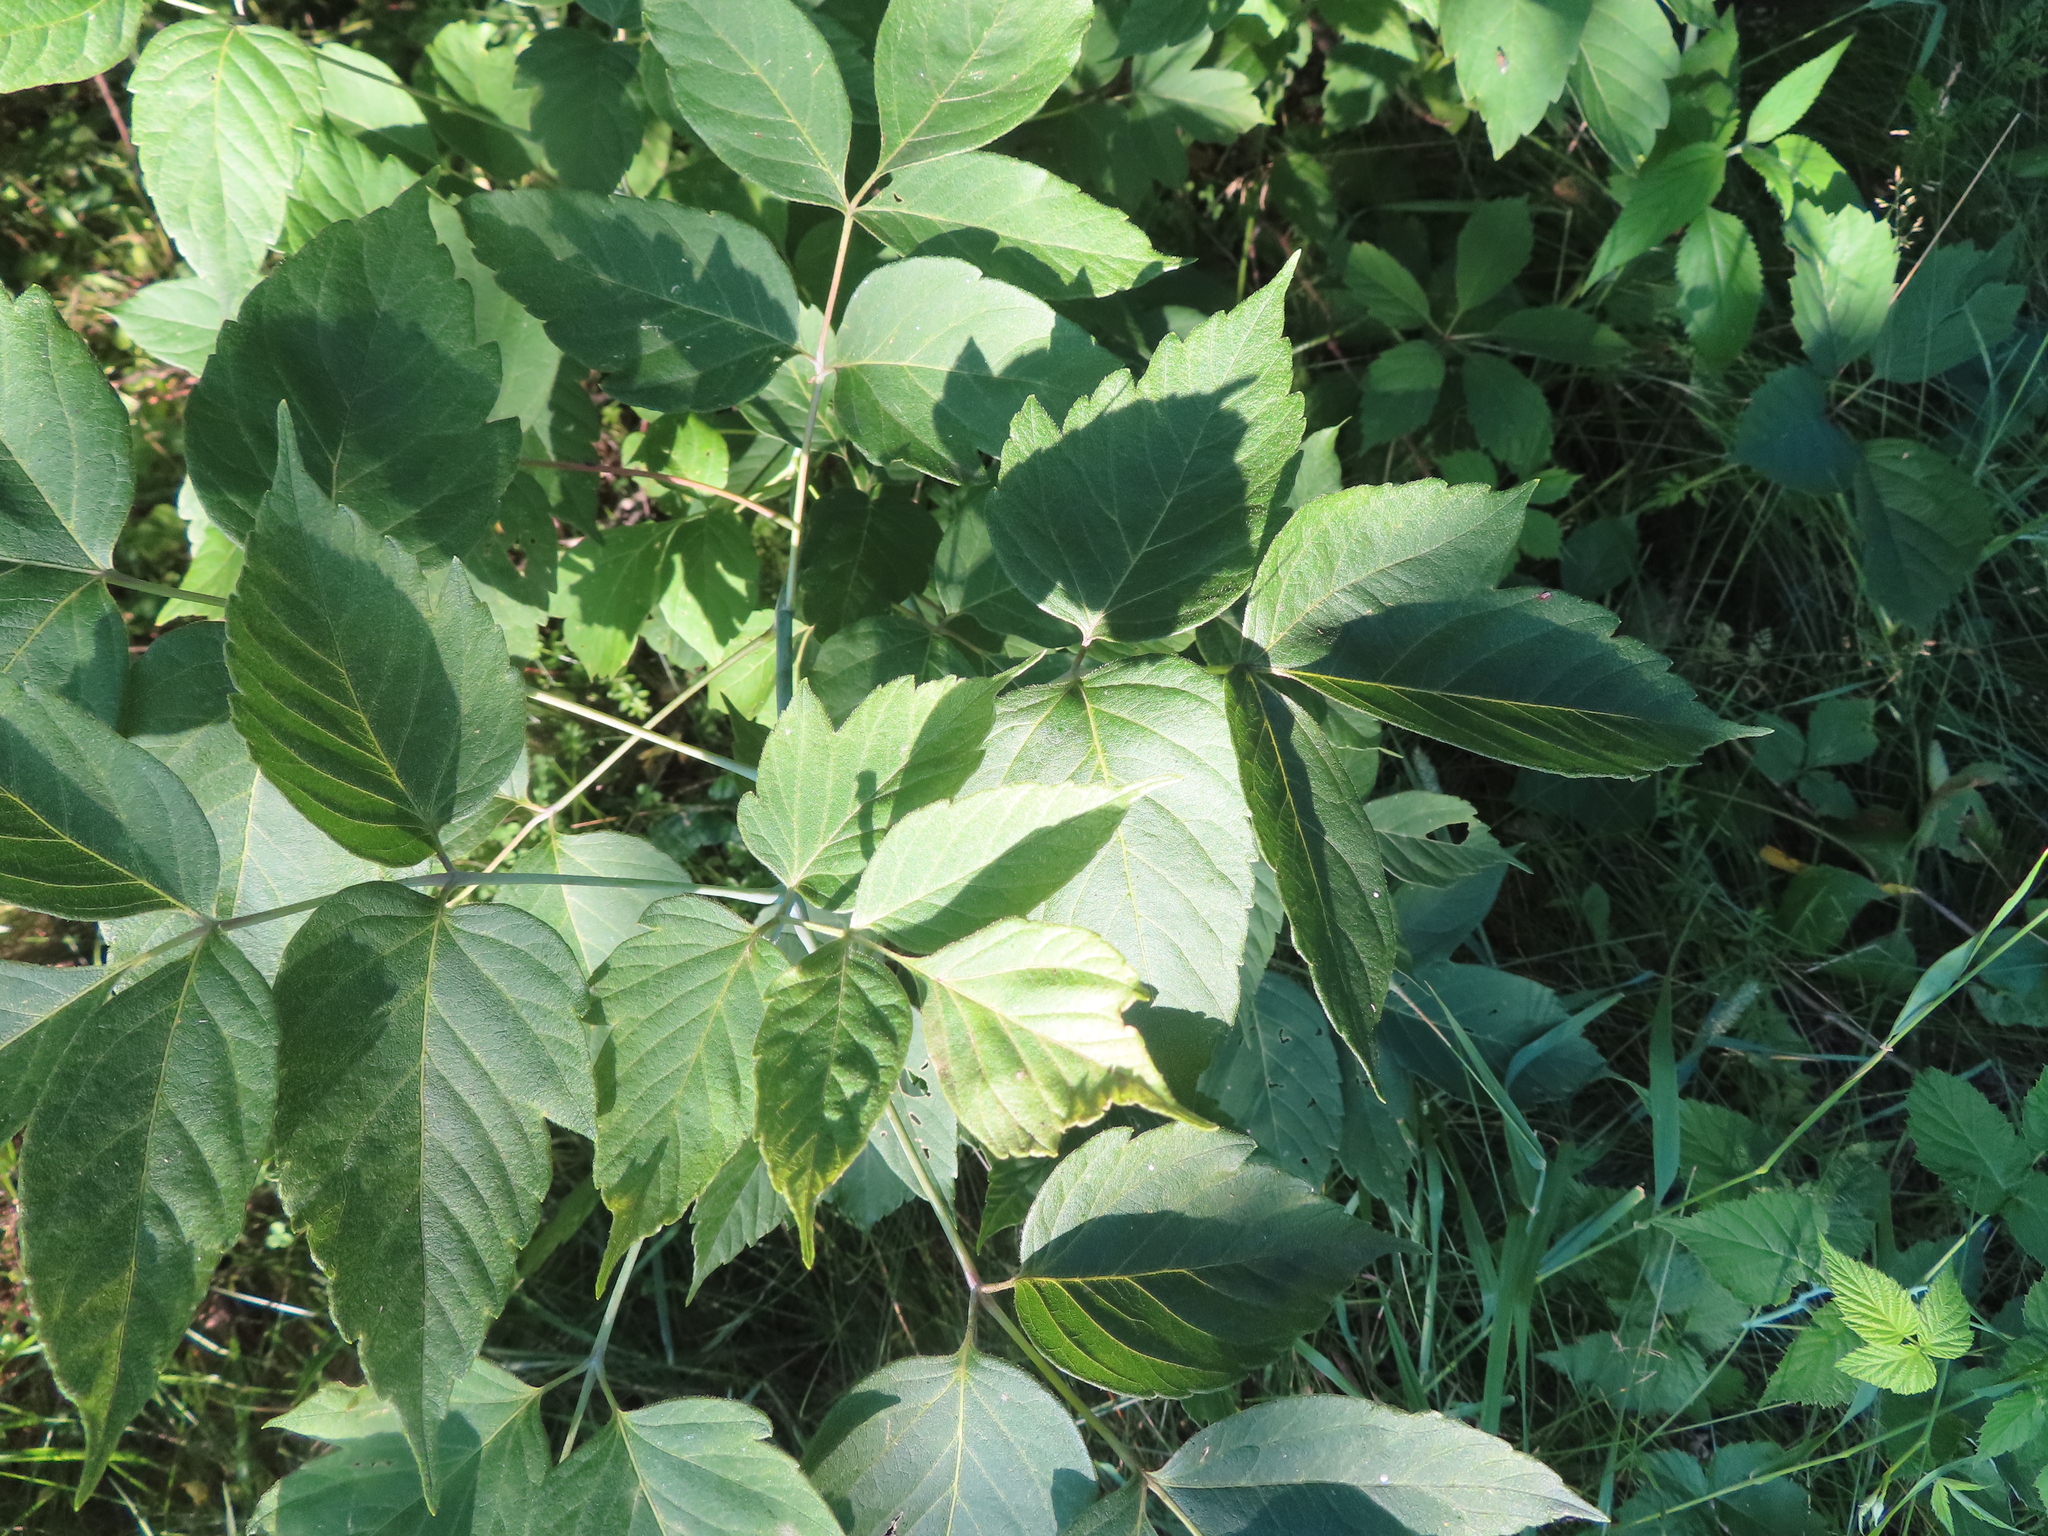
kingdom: Plantae
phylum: Tracheophyta
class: Magnoliopsida
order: Sapindales
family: Sapindaceae
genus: Acer
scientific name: Acer negundo
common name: Ashleaf maple
